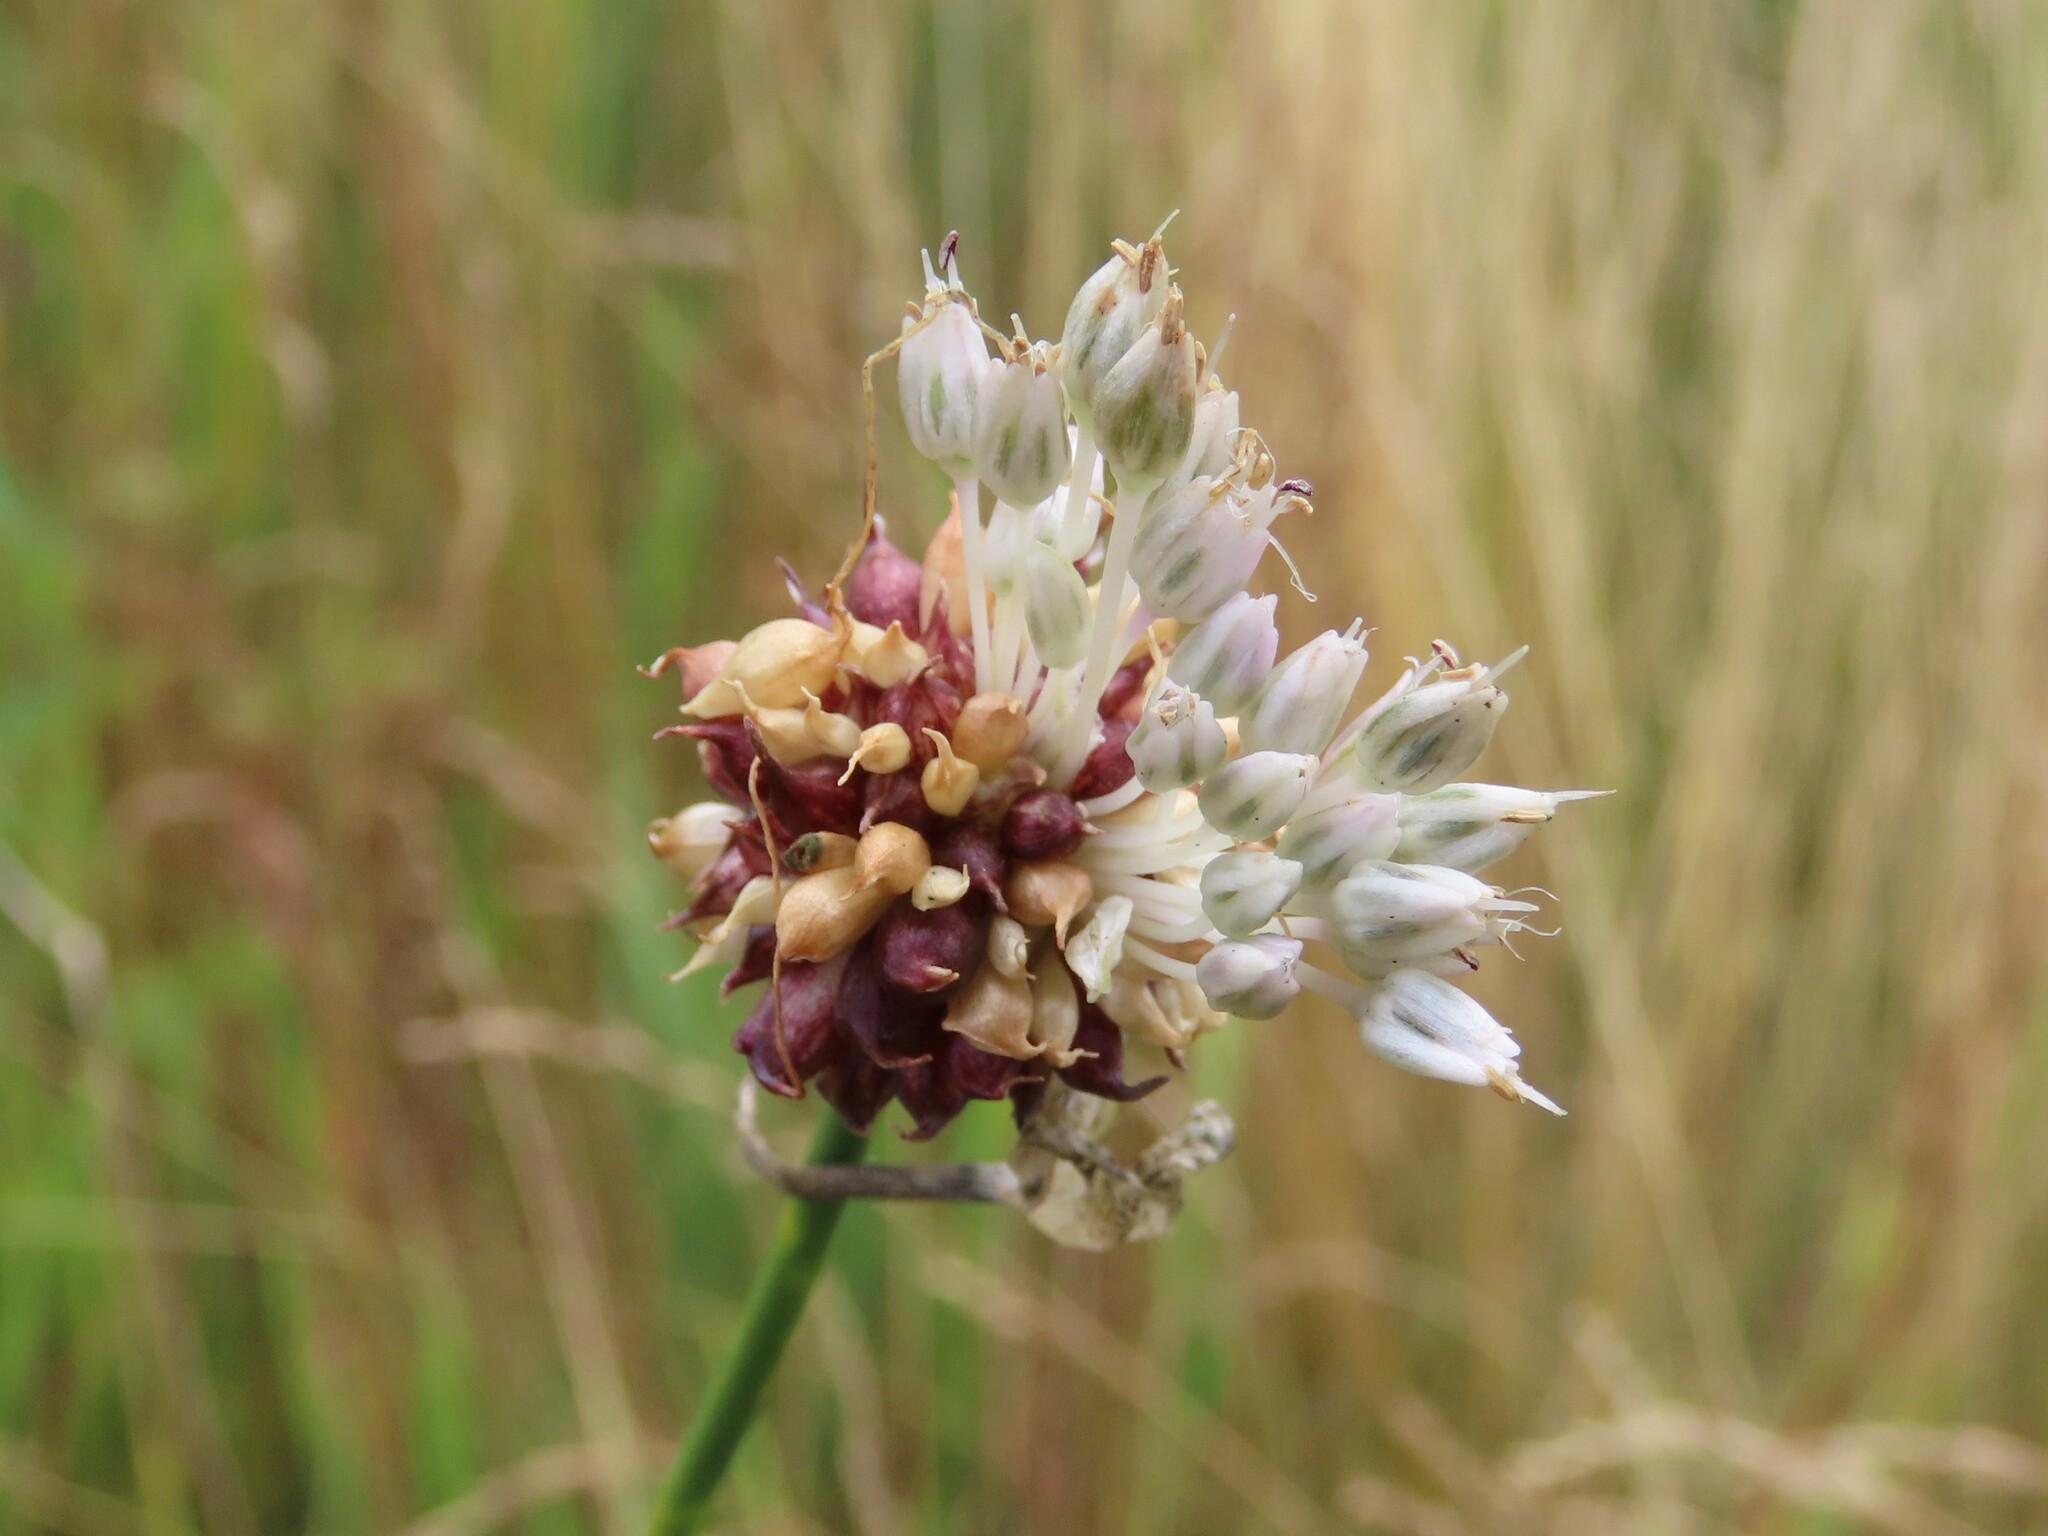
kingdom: Plantae
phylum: Tracheophyta
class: Liliopsida
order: Asparagales
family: Amaryllidaceae
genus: Allium
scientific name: Allium vineale
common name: Crow garlic
